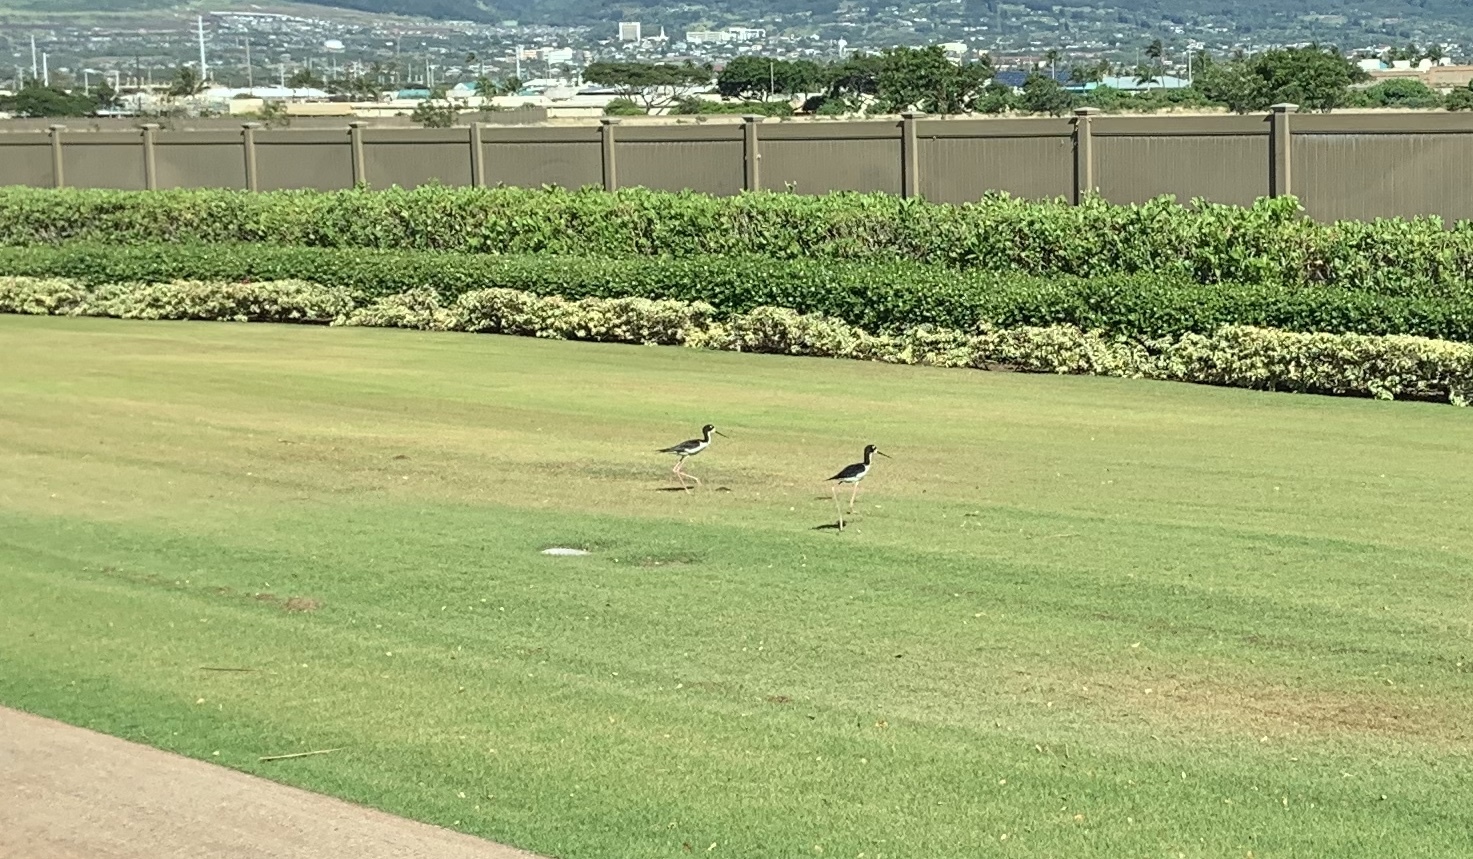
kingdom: Animalia
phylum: Chordata
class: Aves
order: Charadriiformes
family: Recurvirostridae
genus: Himantopus
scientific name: Himantopus mexicanus
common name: Black-necked stilt
